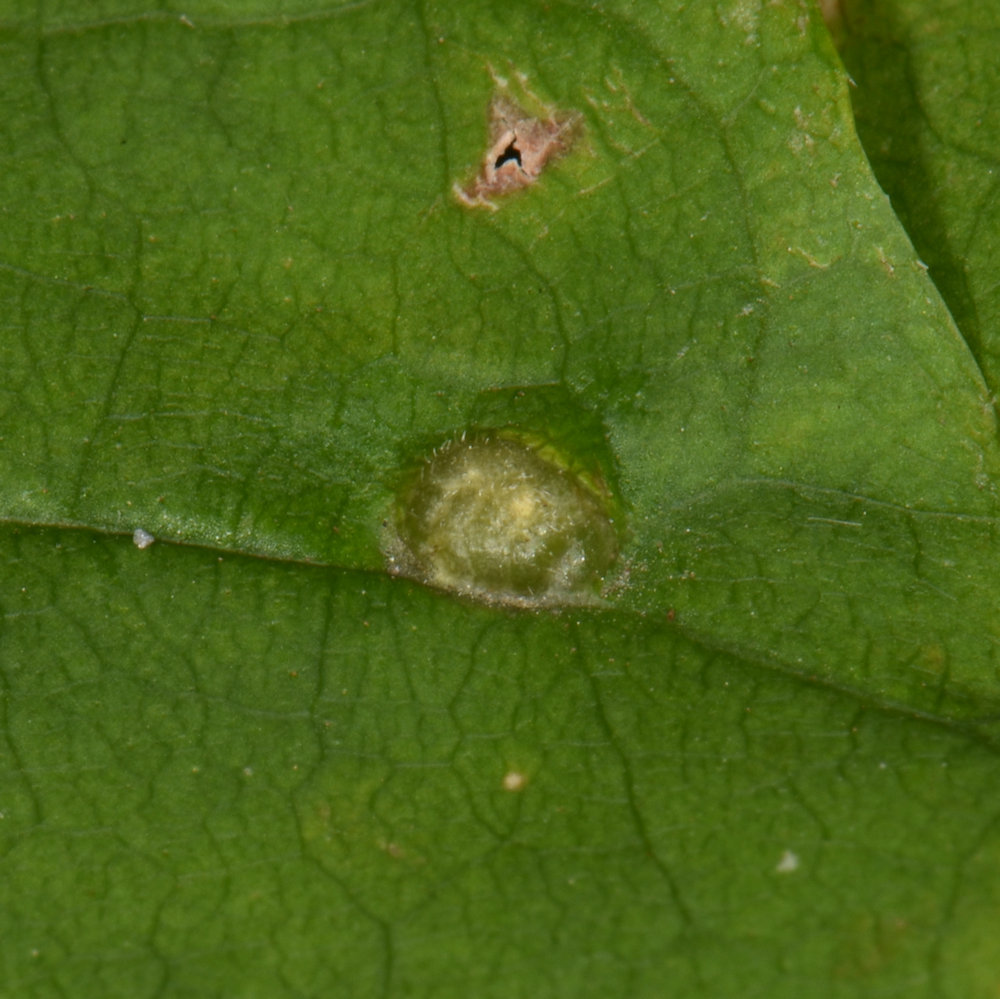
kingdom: Animalia
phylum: Arthropoda
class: Insecta
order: Diptera
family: Cecidomyiidae
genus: Dasineura
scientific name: Dasineura pellex
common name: Ash bullet gall midge
